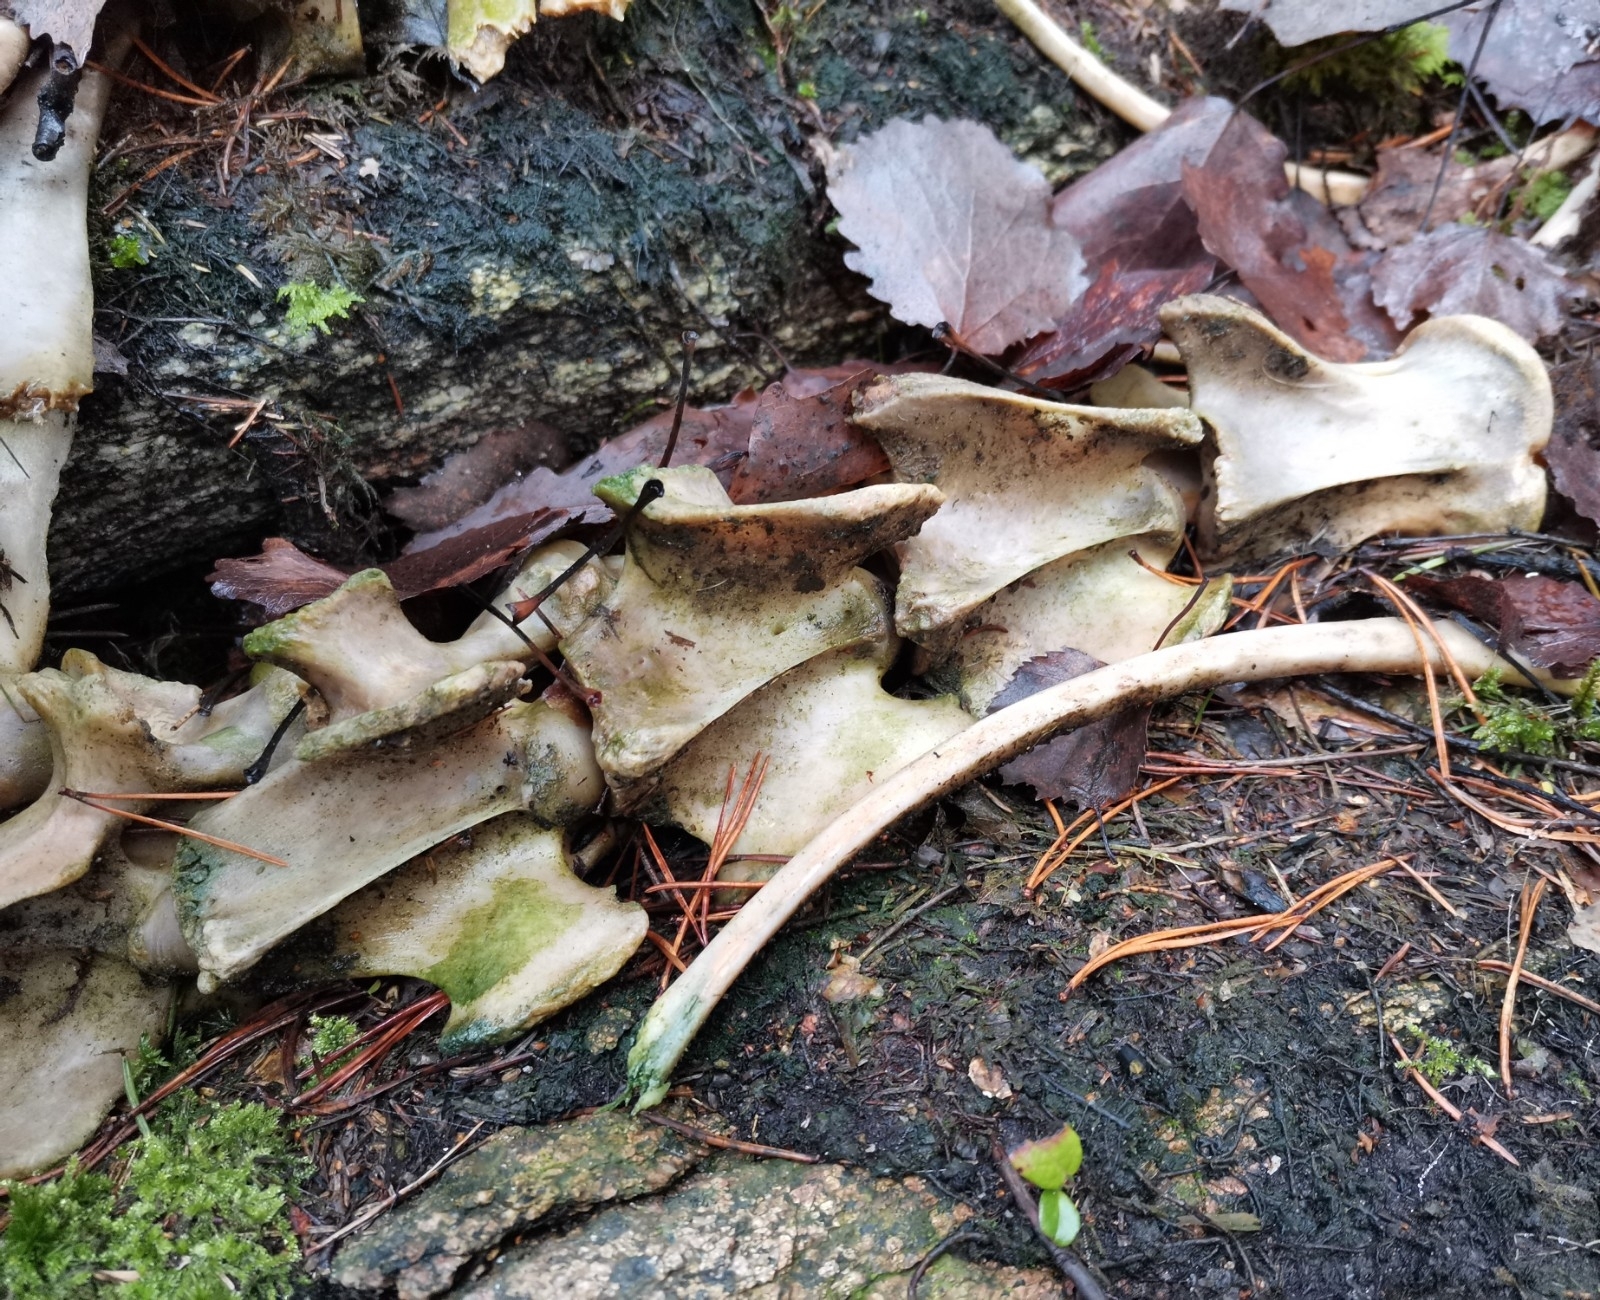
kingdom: Animalia
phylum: Chordata
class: Mammalia
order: Artiodactyla
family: Cervidae
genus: Odocoileus
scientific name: Odocoileus virginianus
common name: White-tailed deer
